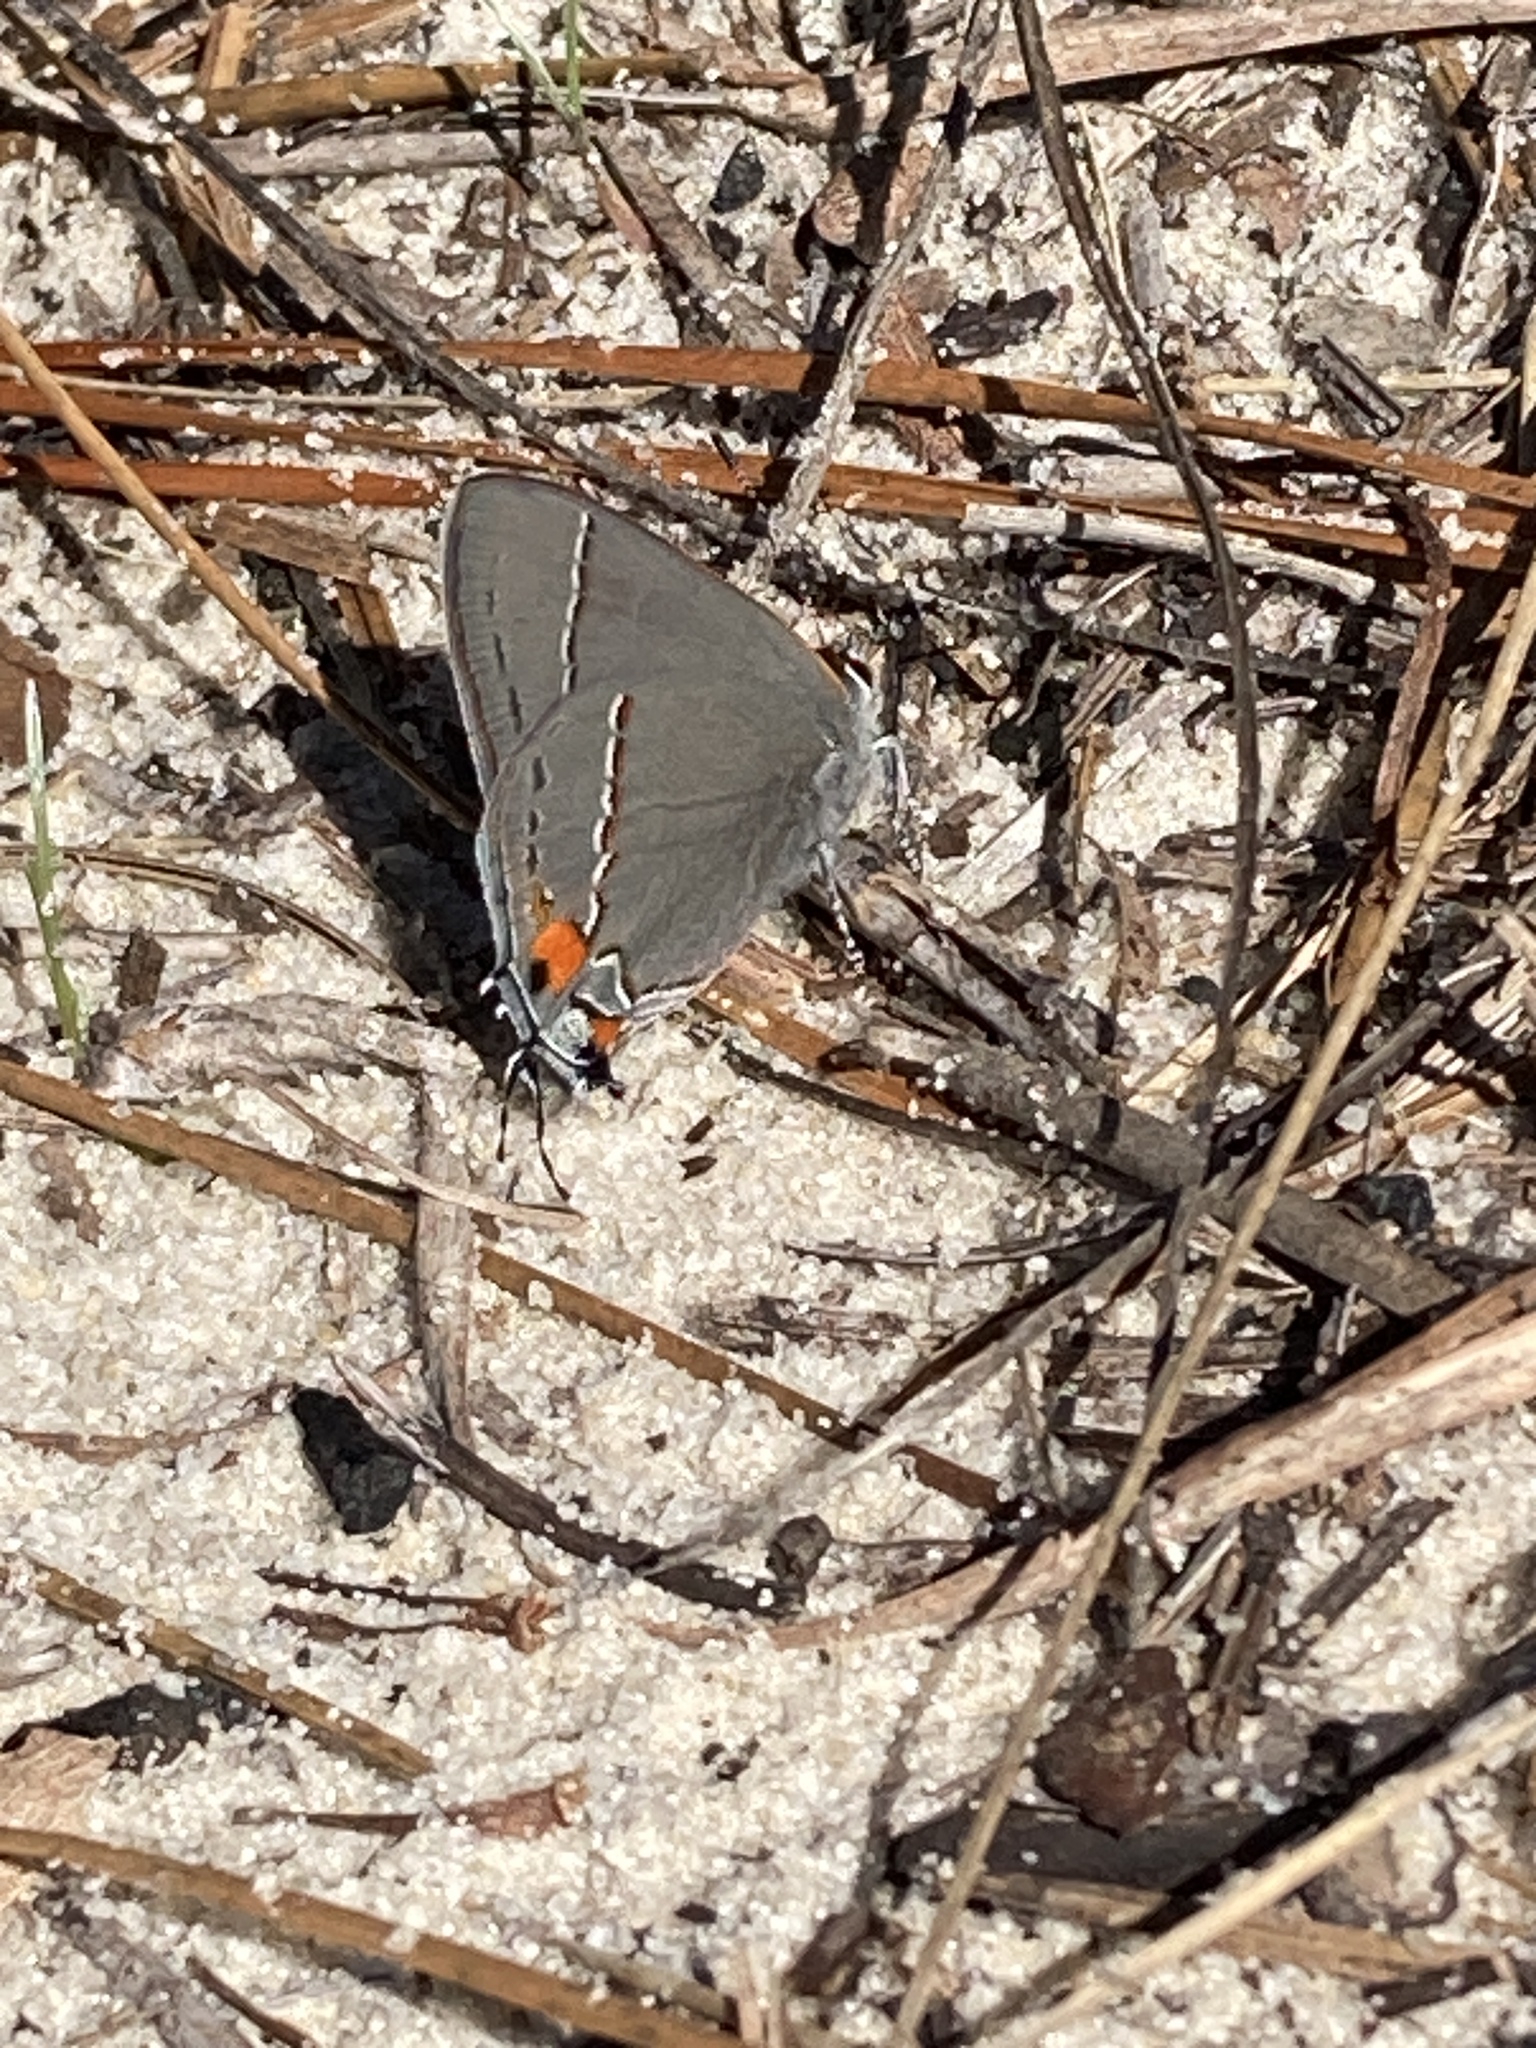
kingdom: Animalia
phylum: Arthropoda
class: Insecta
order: Lepidoptera
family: Lycaenidae
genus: Strymon
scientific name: Strymon melinus
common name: Gray hairstreak
